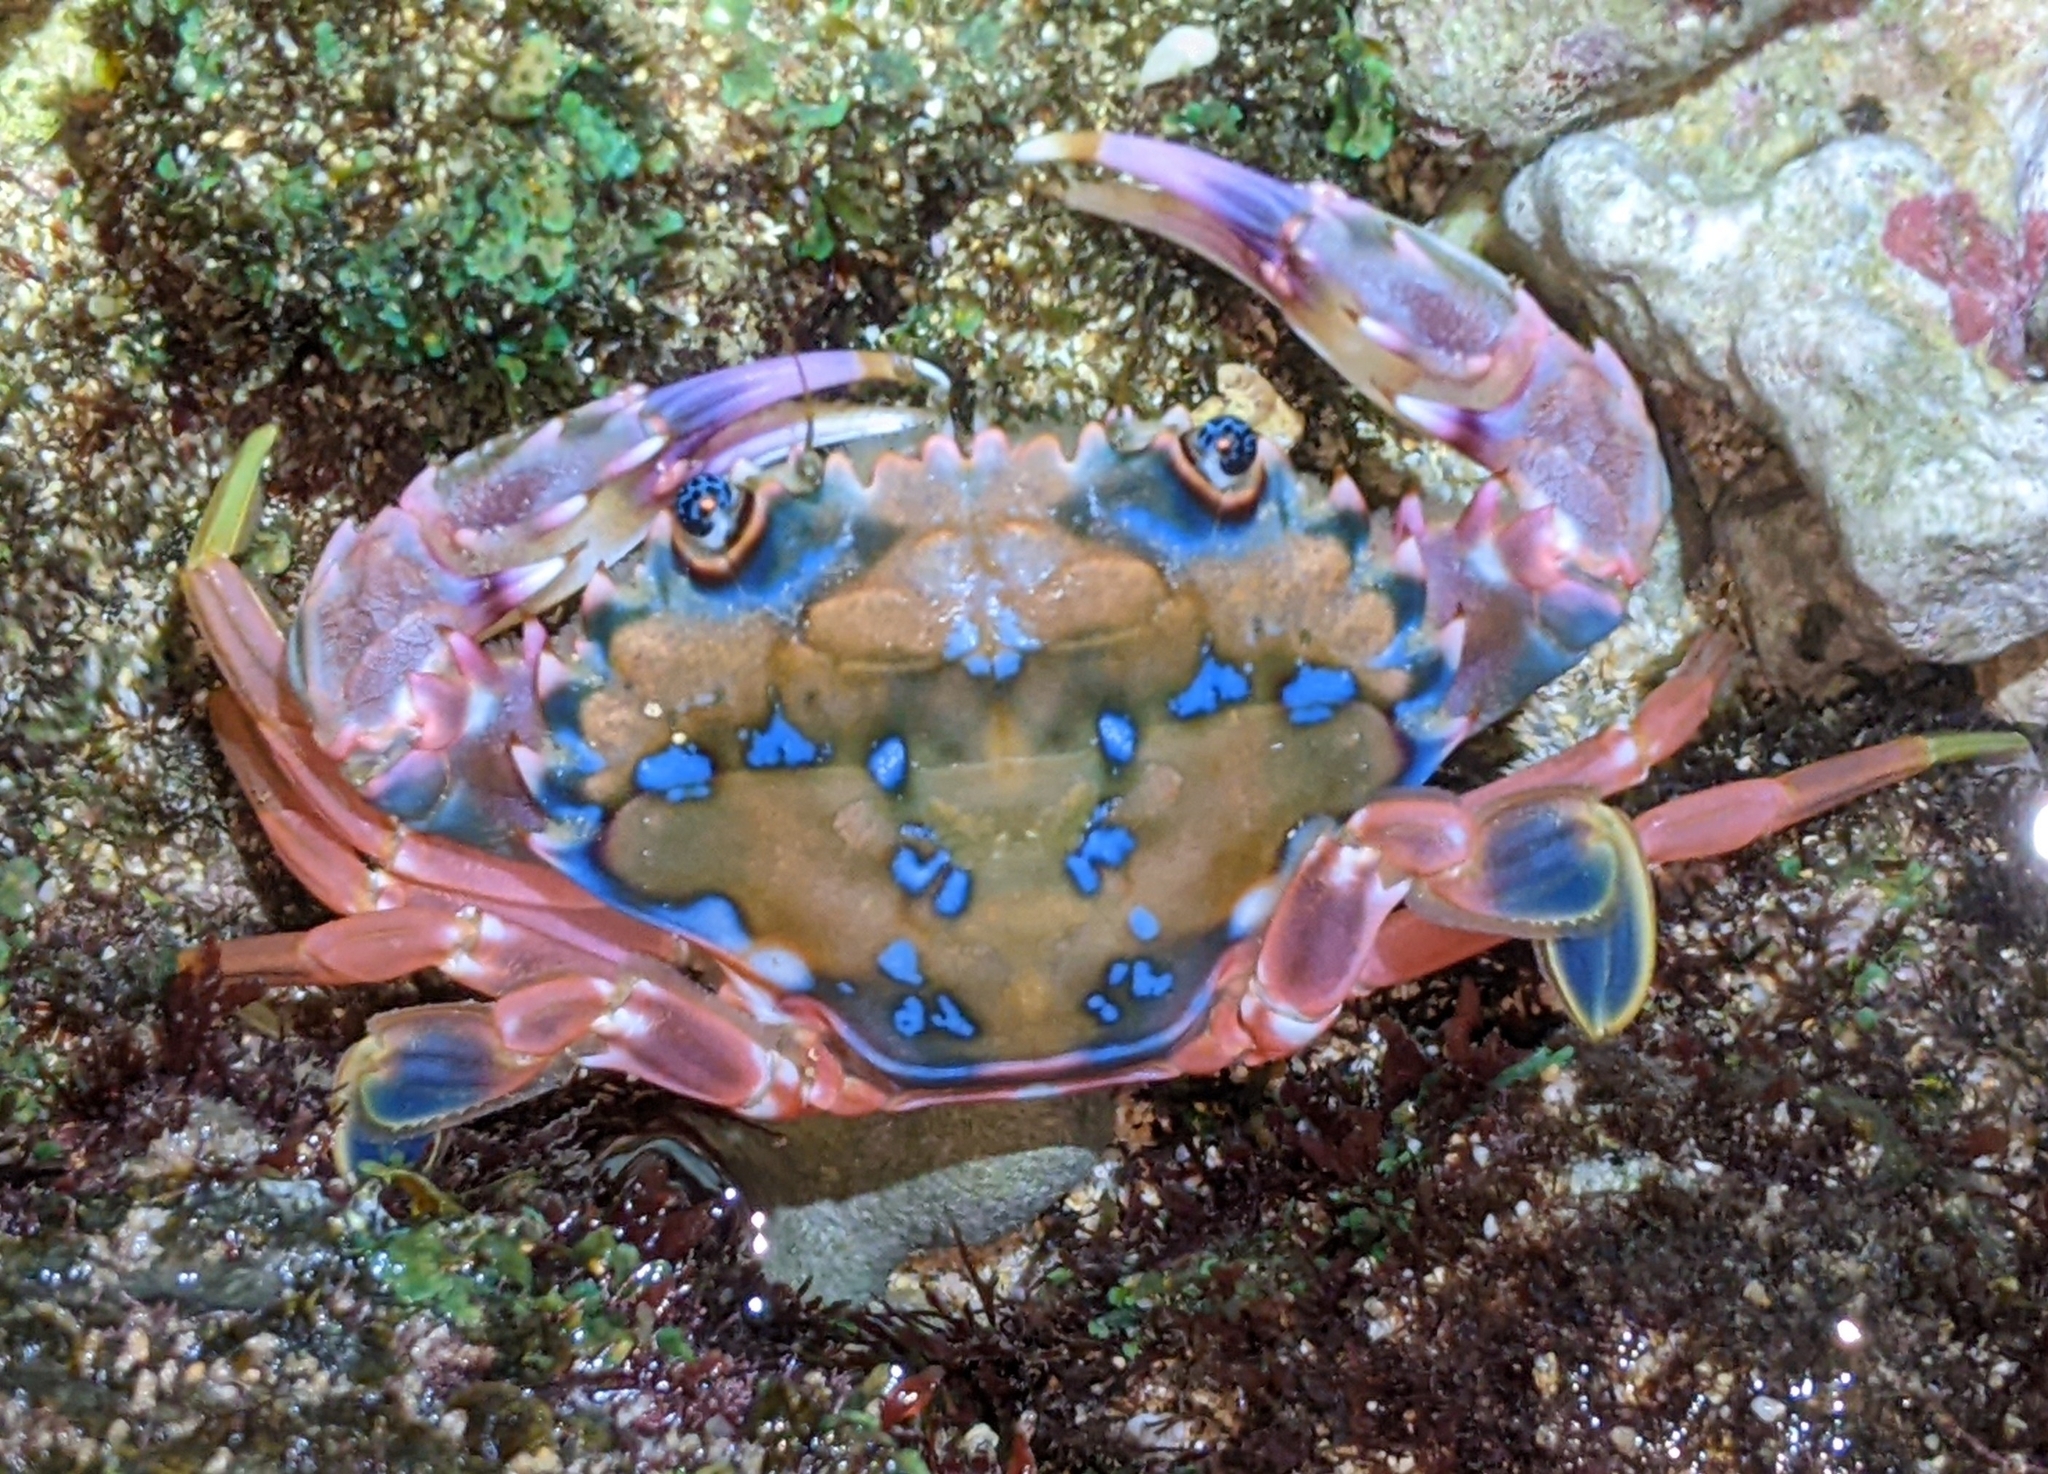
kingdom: Animalia
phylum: Arthropoda
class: Malacostraca
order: Decapoda
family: Portunidae
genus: Goniosupradens
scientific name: Goniosupradens erythrodactylus
